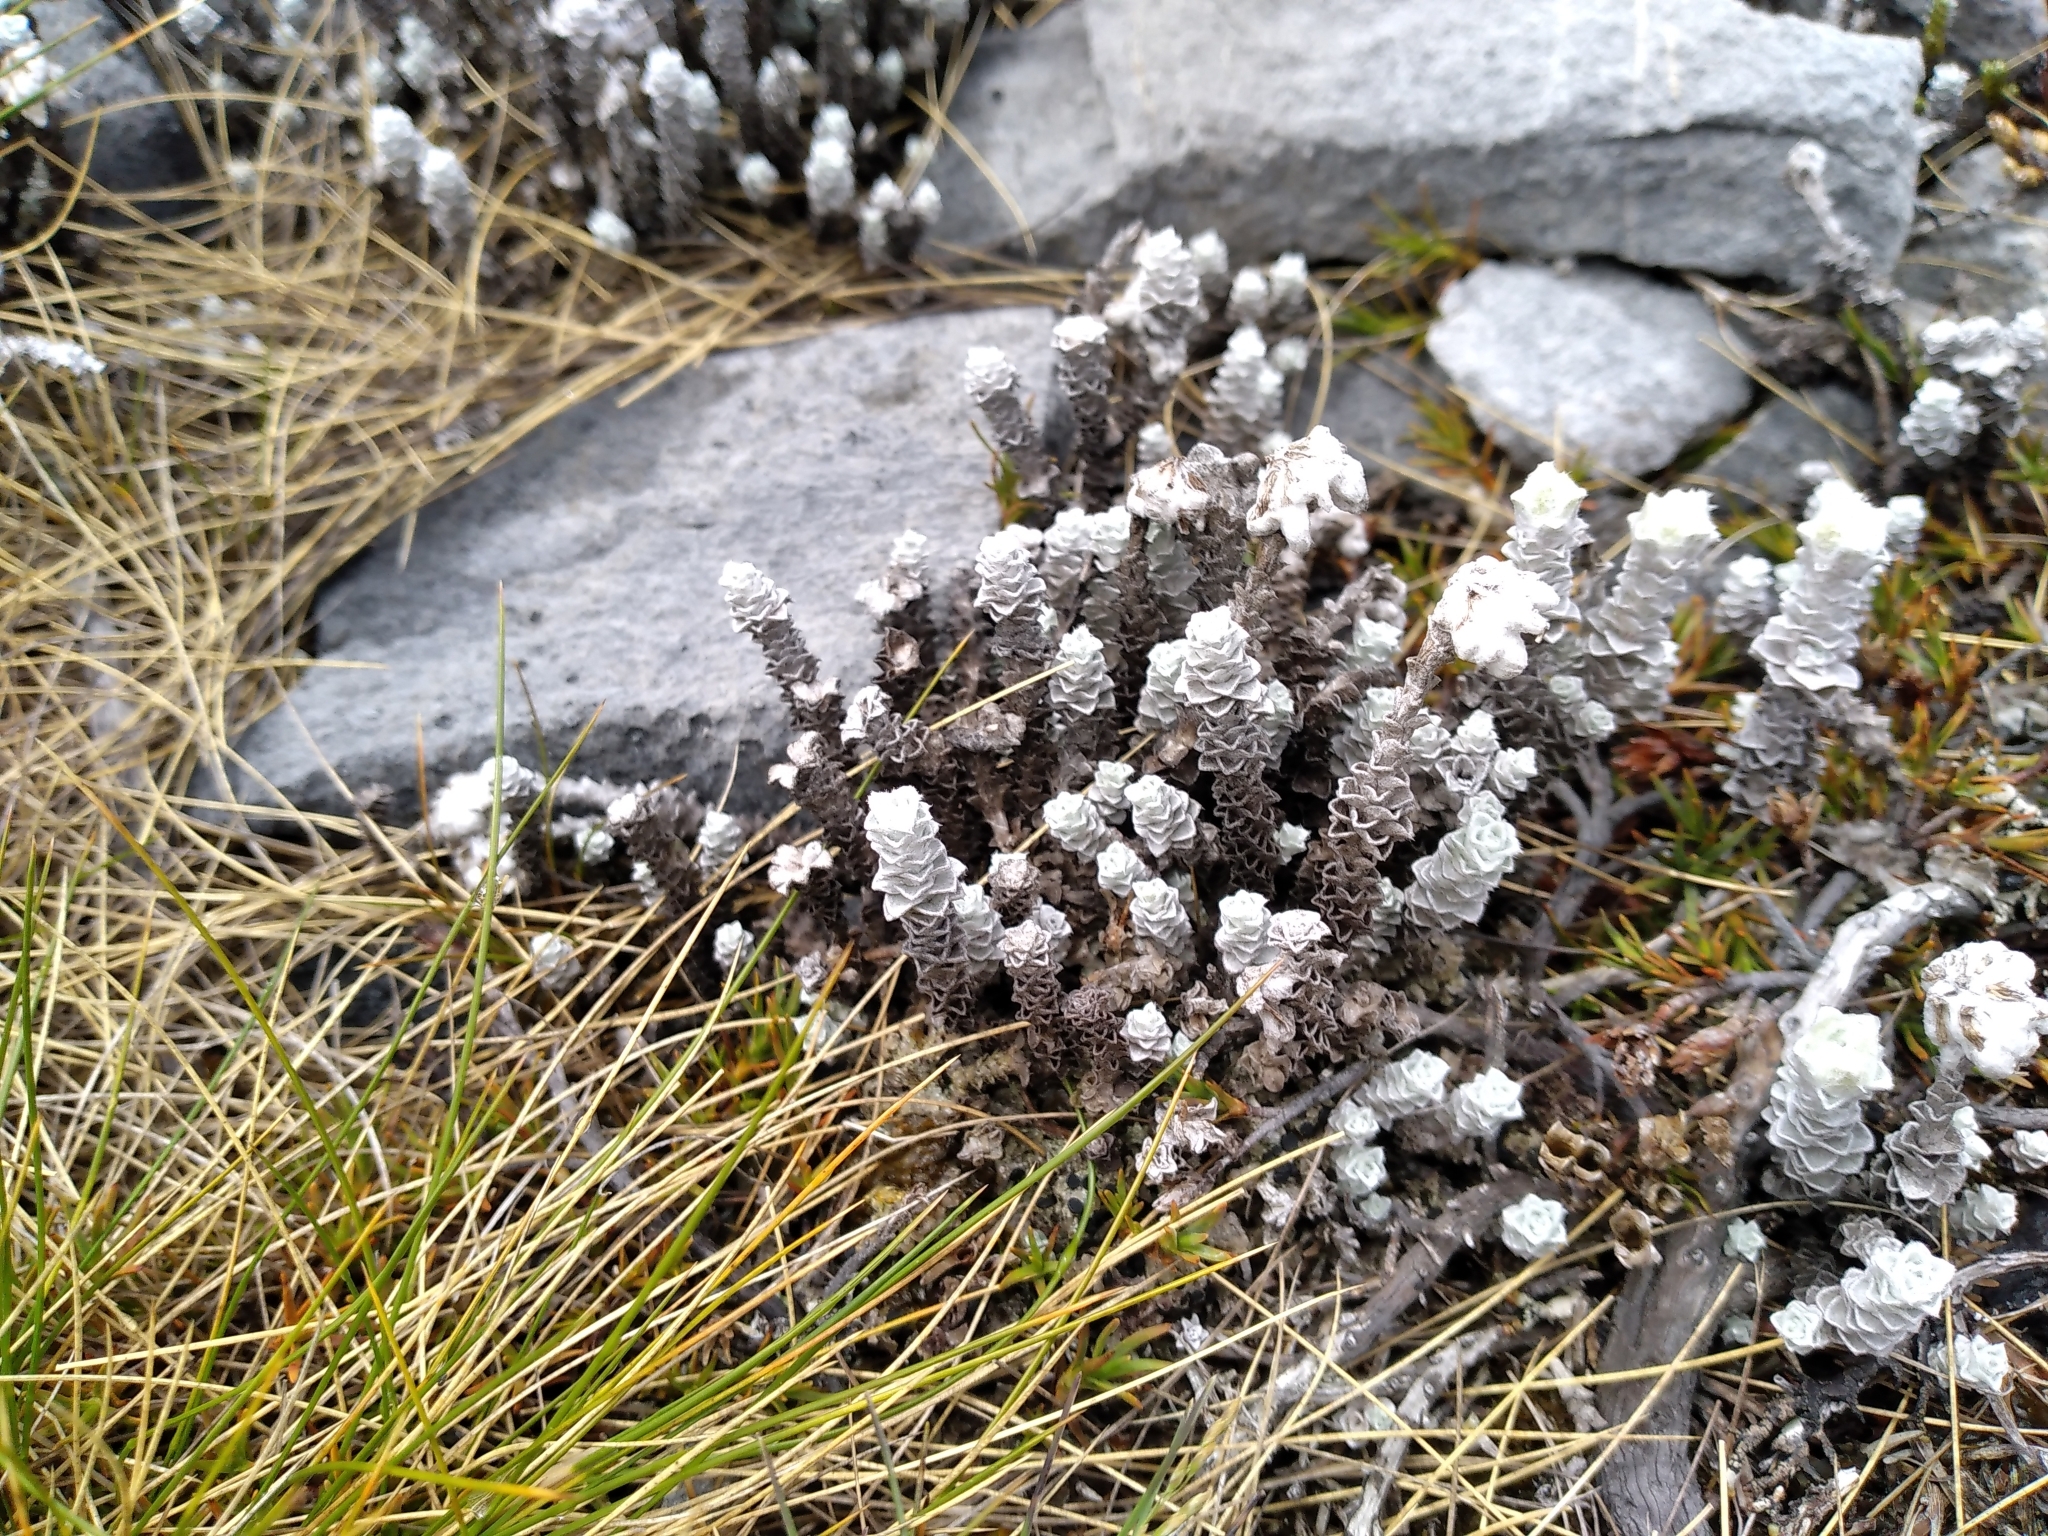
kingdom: Plantae
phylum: Tracheophyta
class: Magnoliopsida
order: Asterales
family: Asteraceae
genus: Leucogenes
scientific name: Leucogenes grandiceps
